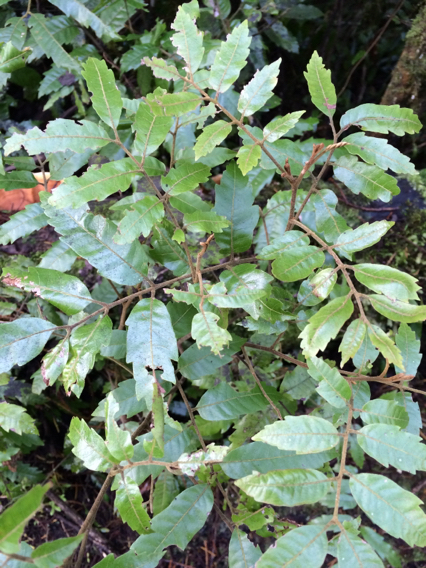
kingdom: Plantae
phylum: Tracheophyta
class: Magnoliopsida
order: Sapindales
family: Sapindaceae
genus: Alectryon
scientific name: Alectryon excelsus
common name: Three kings titoki
